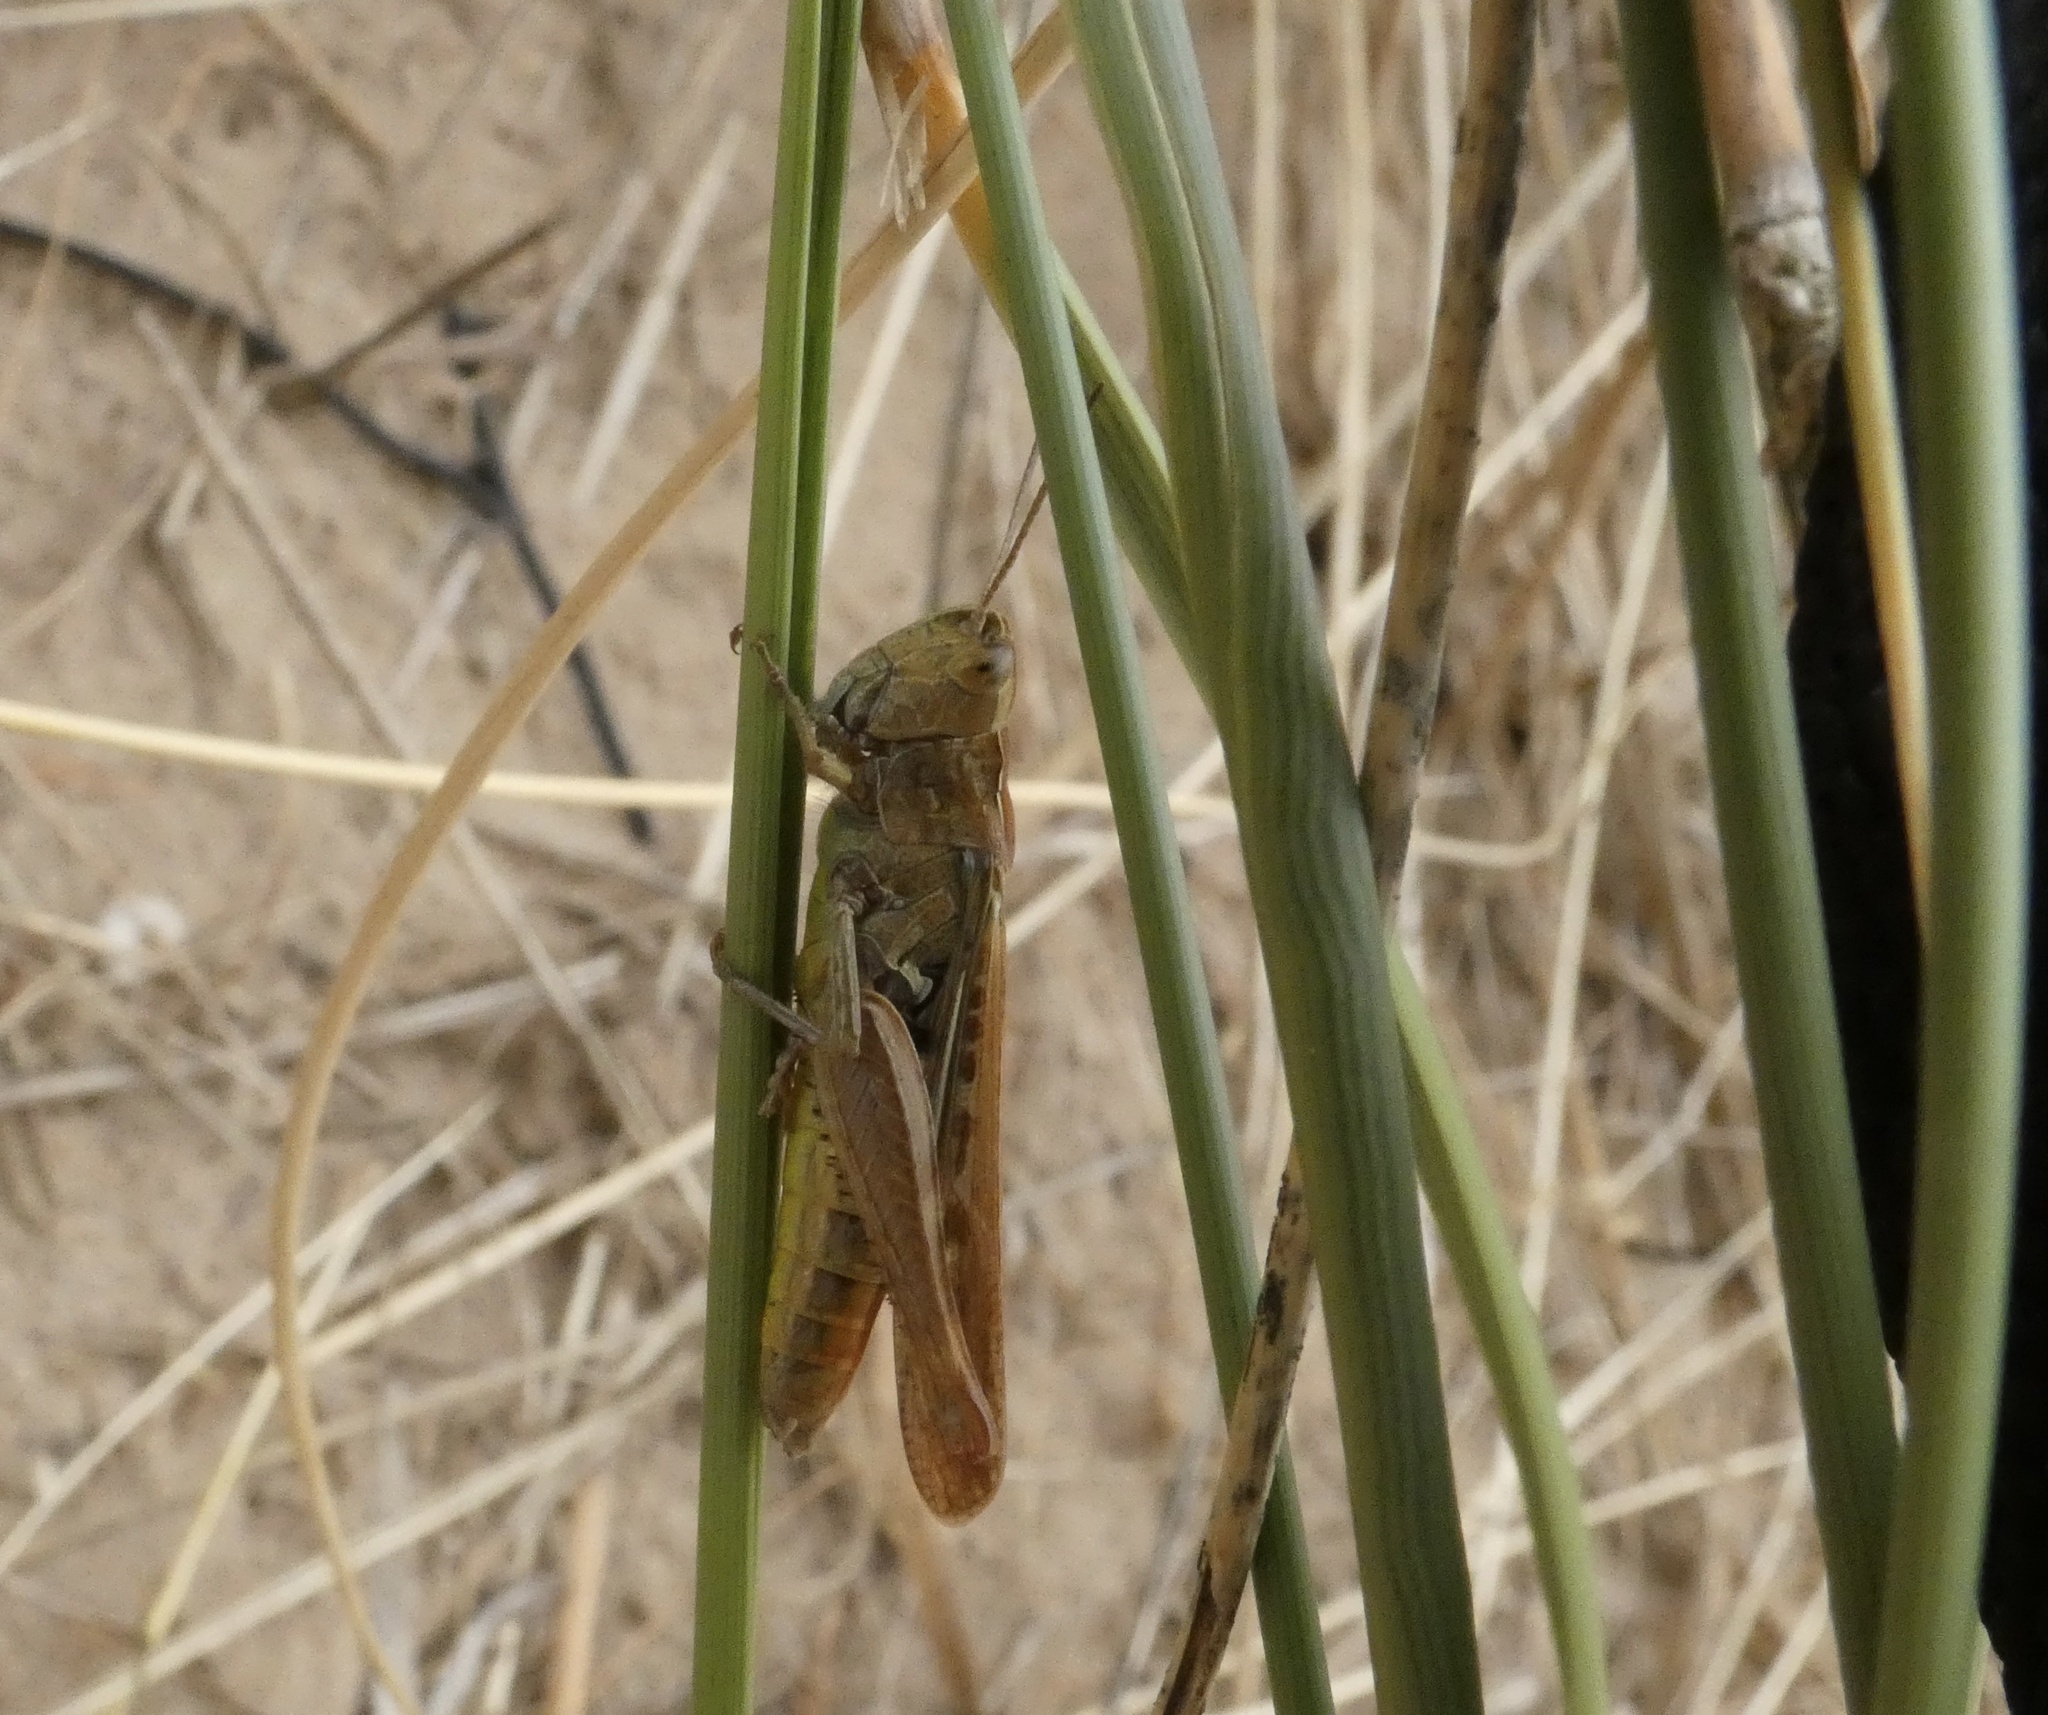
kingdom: Animalia
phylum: Arthropoda
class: Insecta
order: Orthoptera
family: Acrididae
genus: Chorthippus
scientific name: Chorthippus brunneus
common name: Field grasshopper
